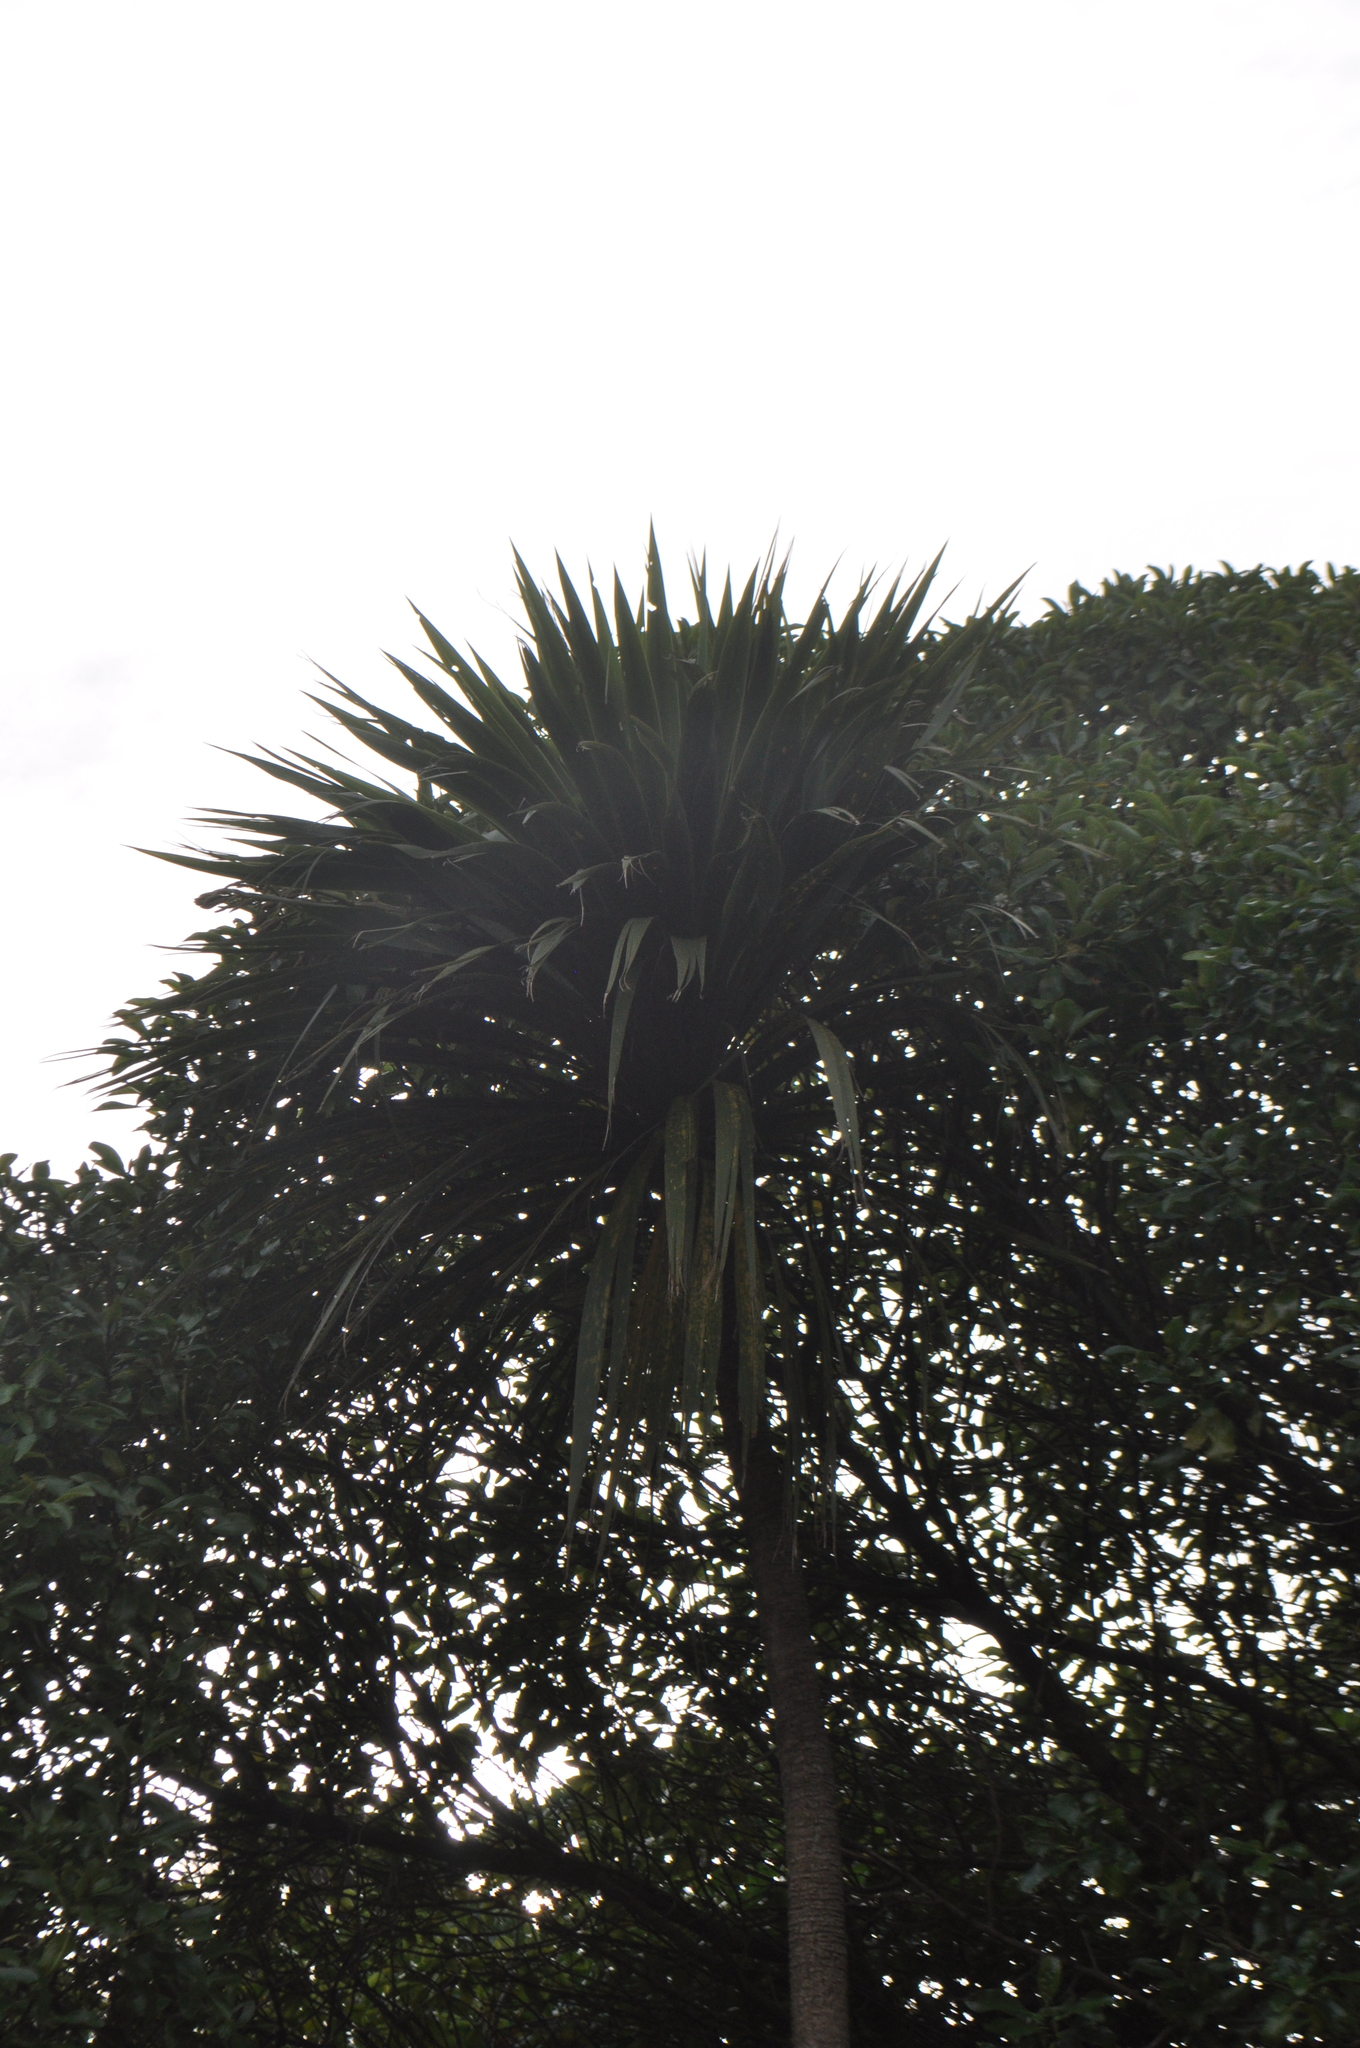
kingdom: Plantae
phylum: Tracheophyta
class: Liliopsida
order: Asparagales
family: Asparagaceae
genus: Cordyline
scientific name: Cordyline australis
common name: Cabbage-palm
